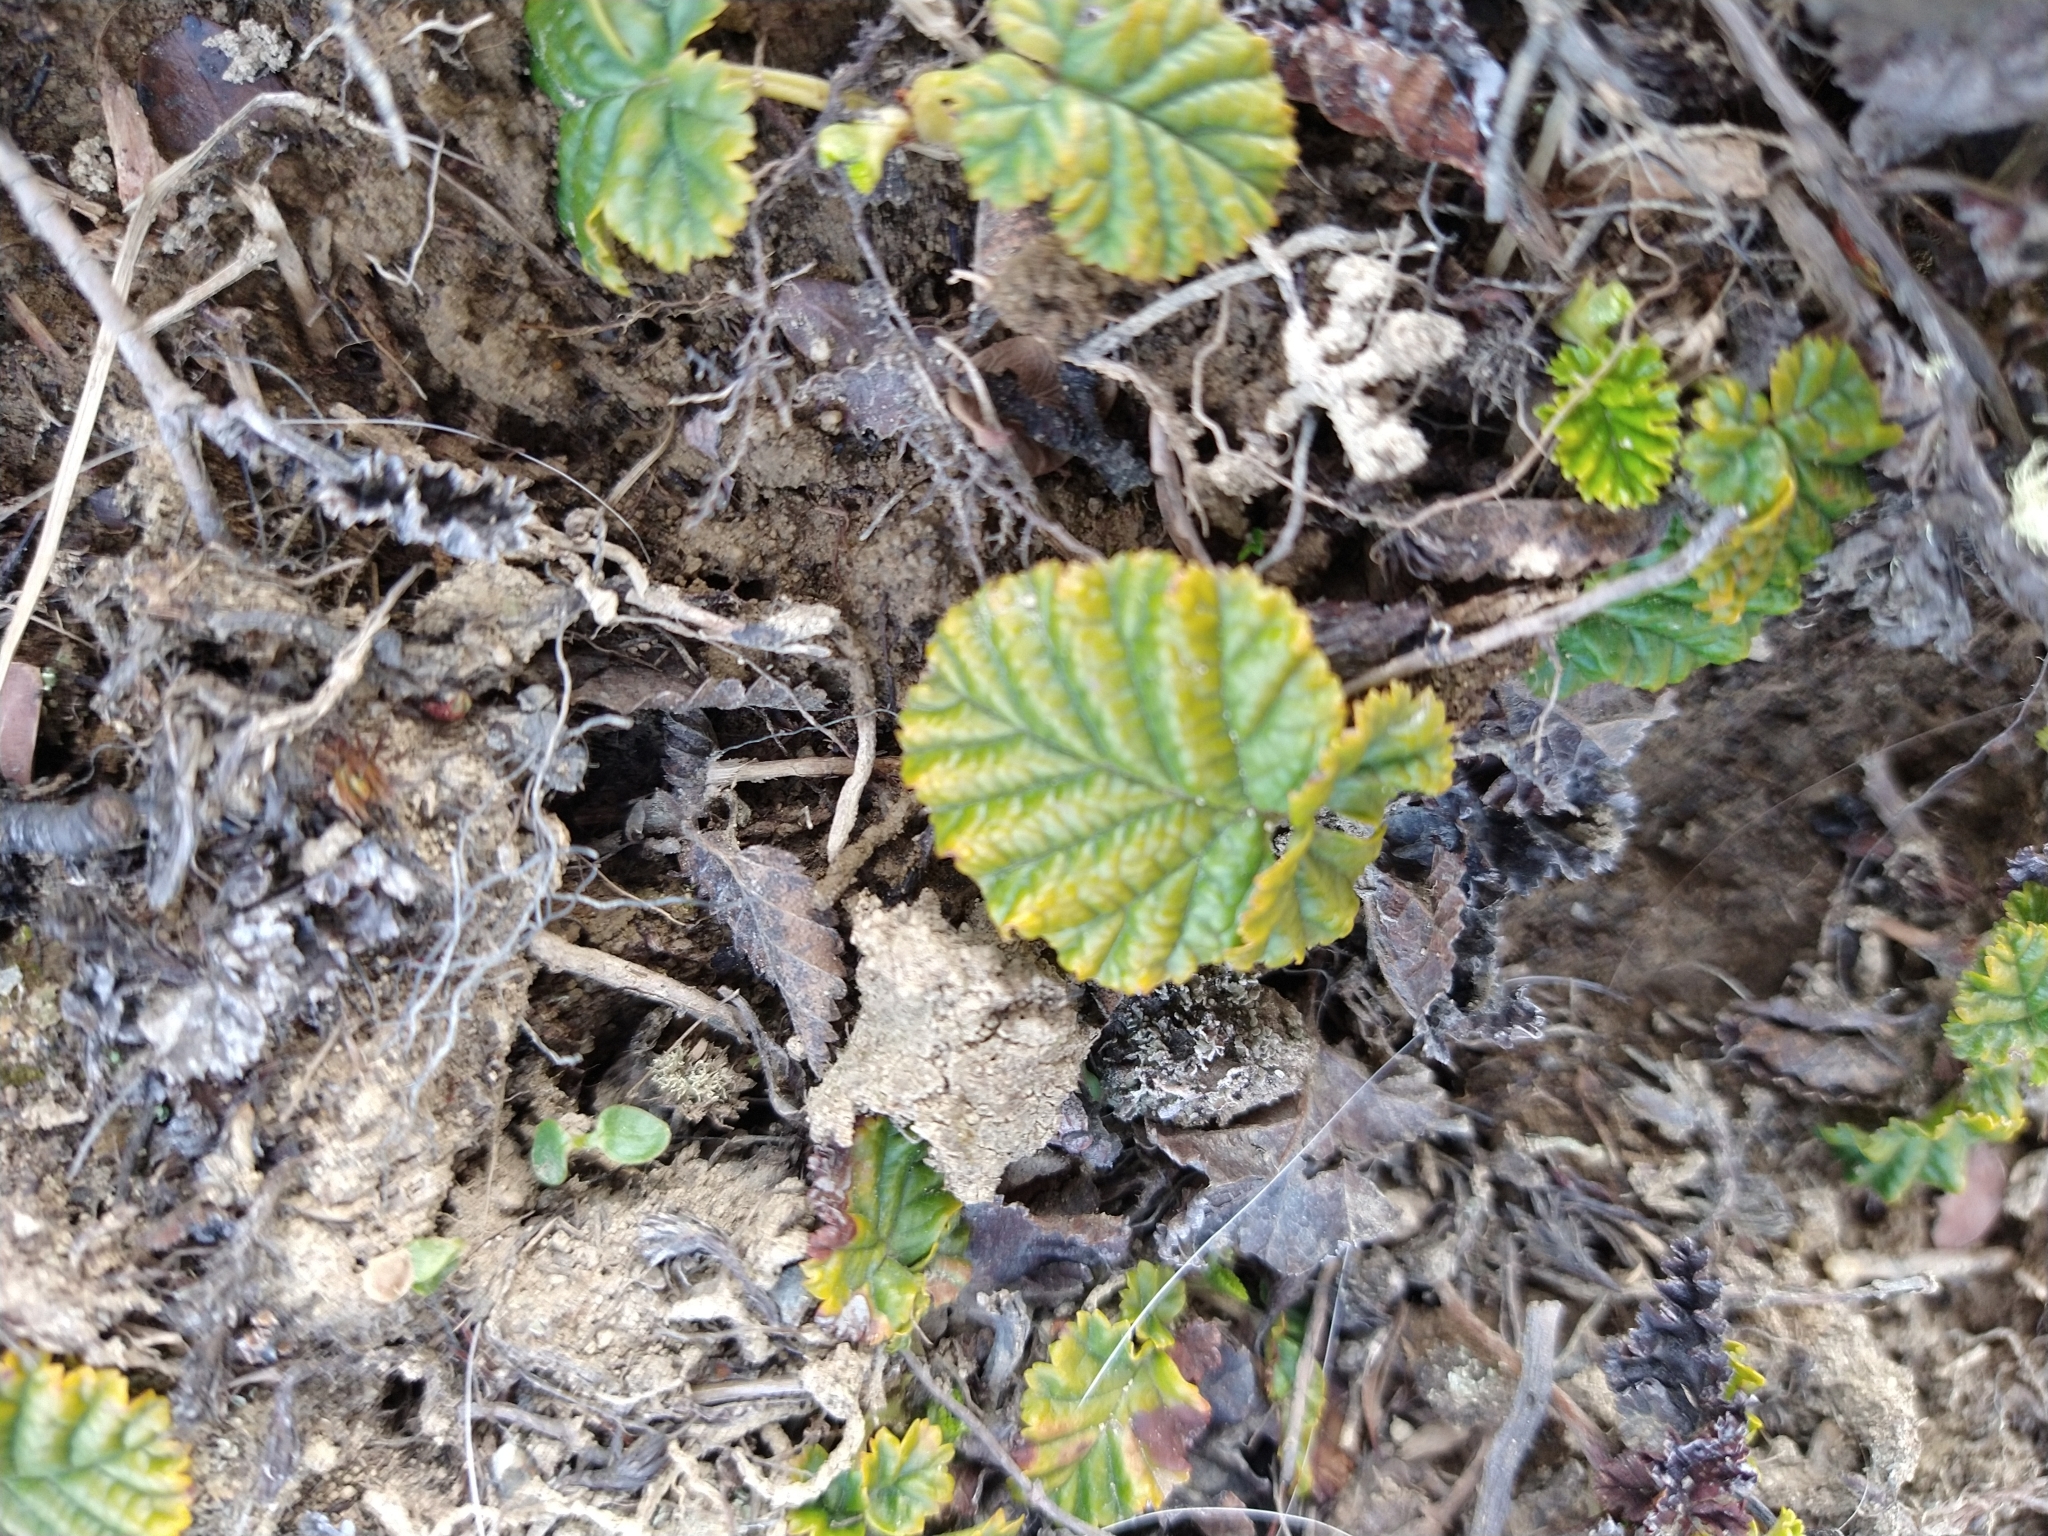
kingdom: Plantae
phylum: Tracheophyta
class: Magnoliopsida
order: Rosales
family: Rosaceae
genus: Rubus
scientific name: Rubus geoides
